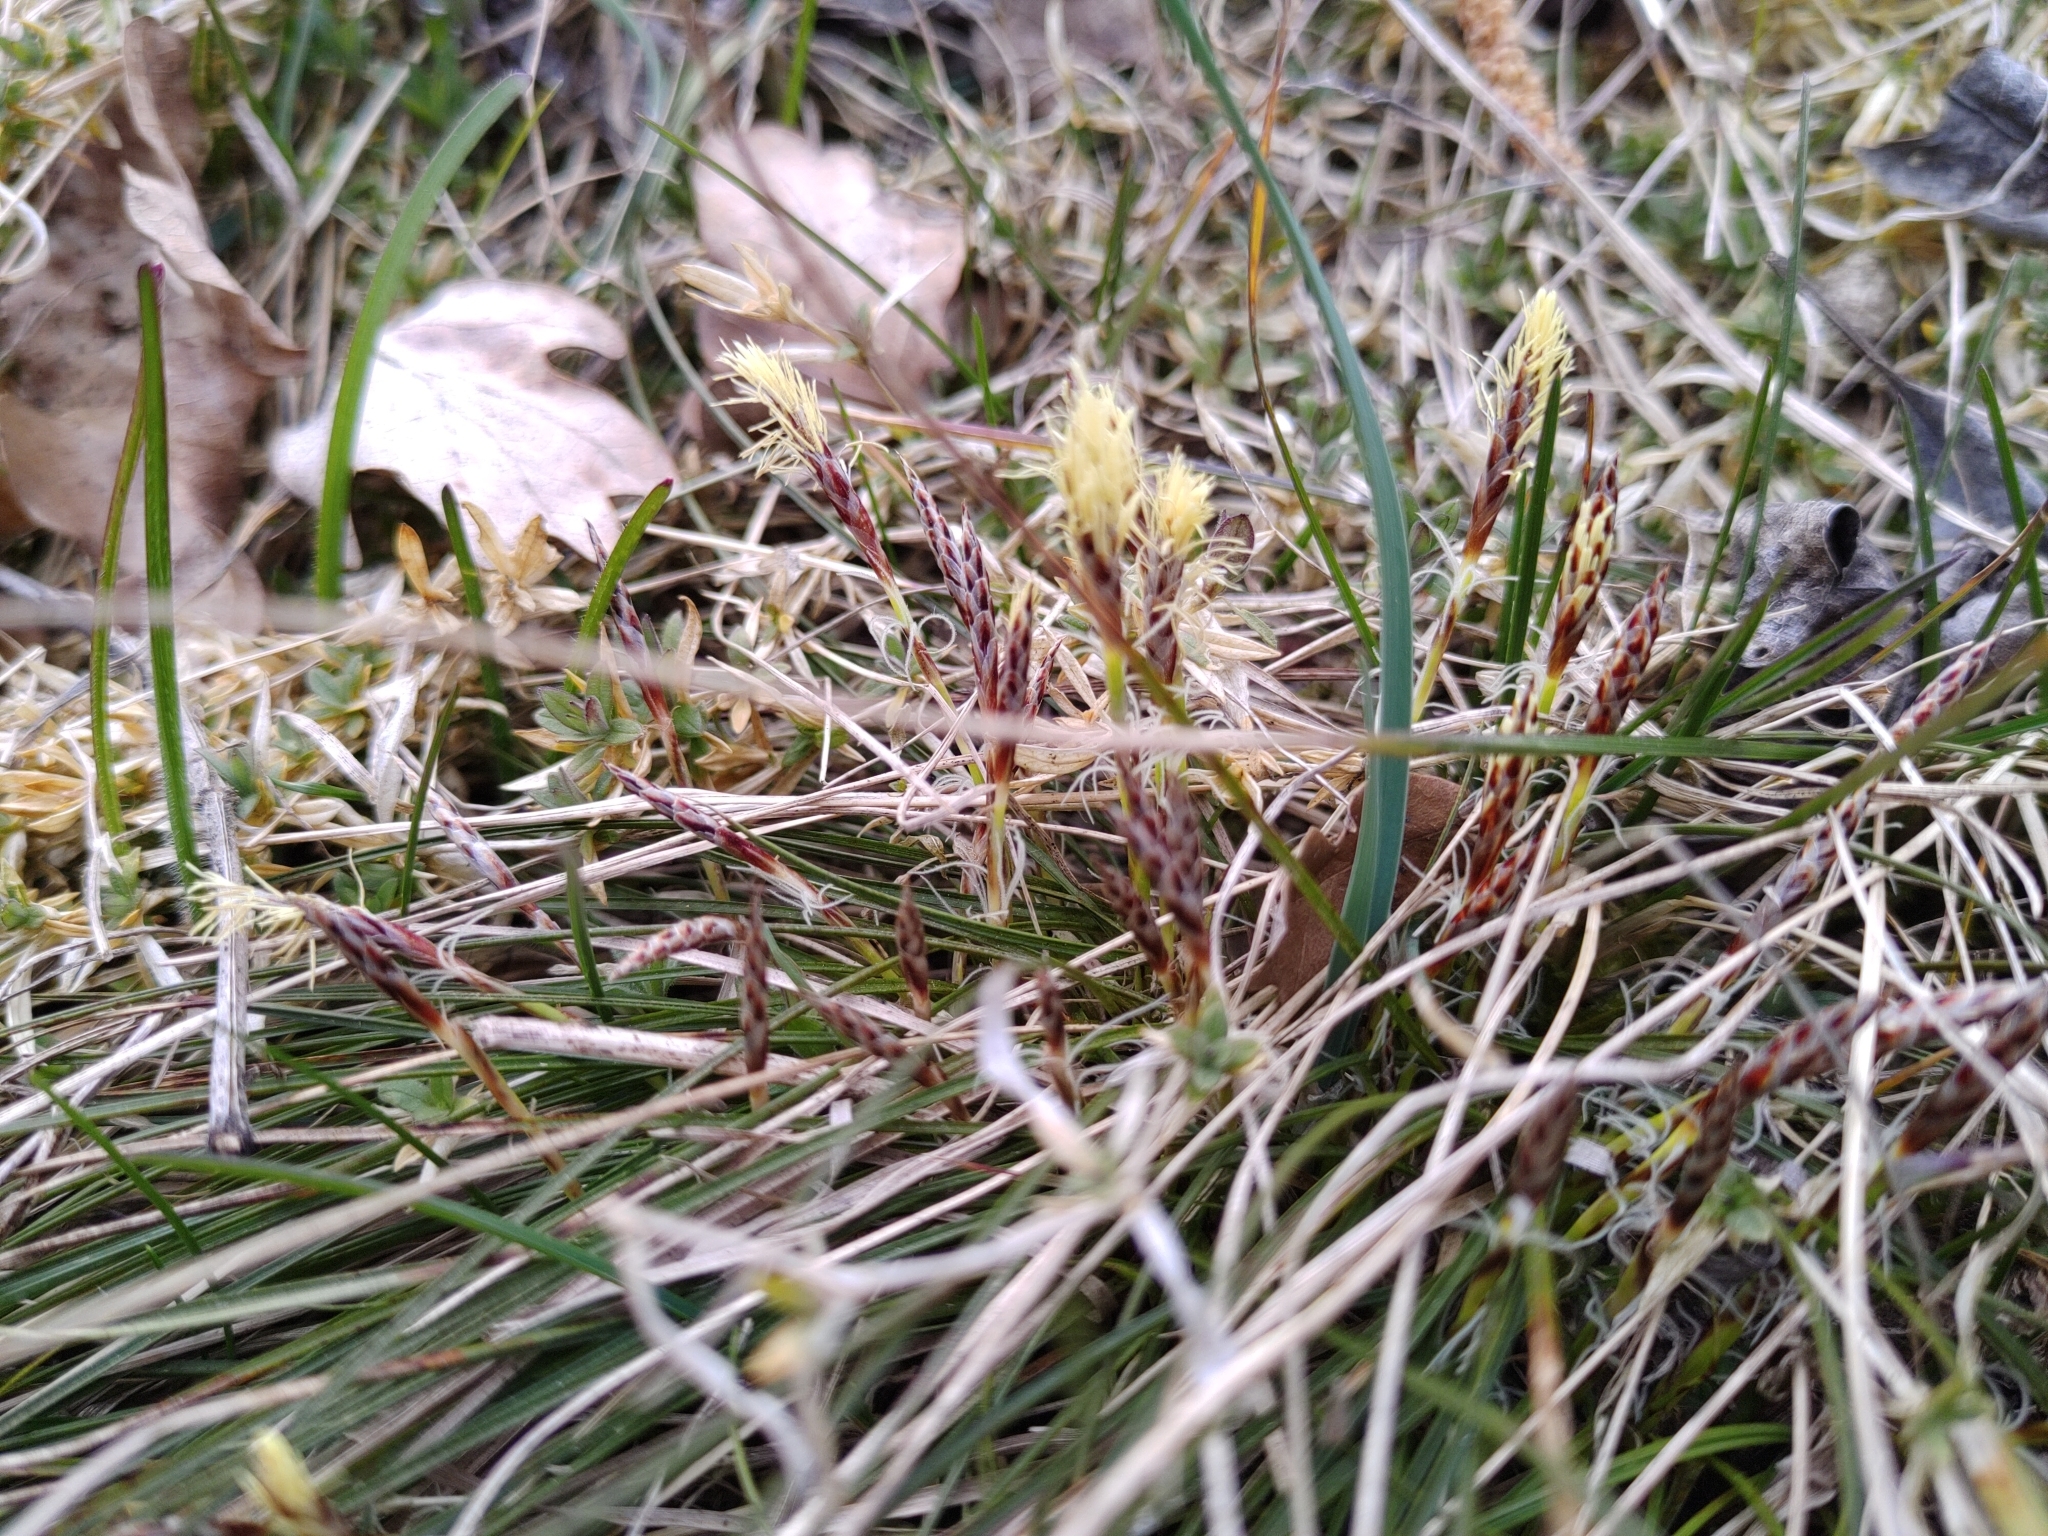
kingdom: Plantae
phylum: Tracheophyta
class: Liliopsida
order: Poales
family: Cyperaceae
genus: Carex
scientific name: Carex humilis
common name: Dwarf sedge
